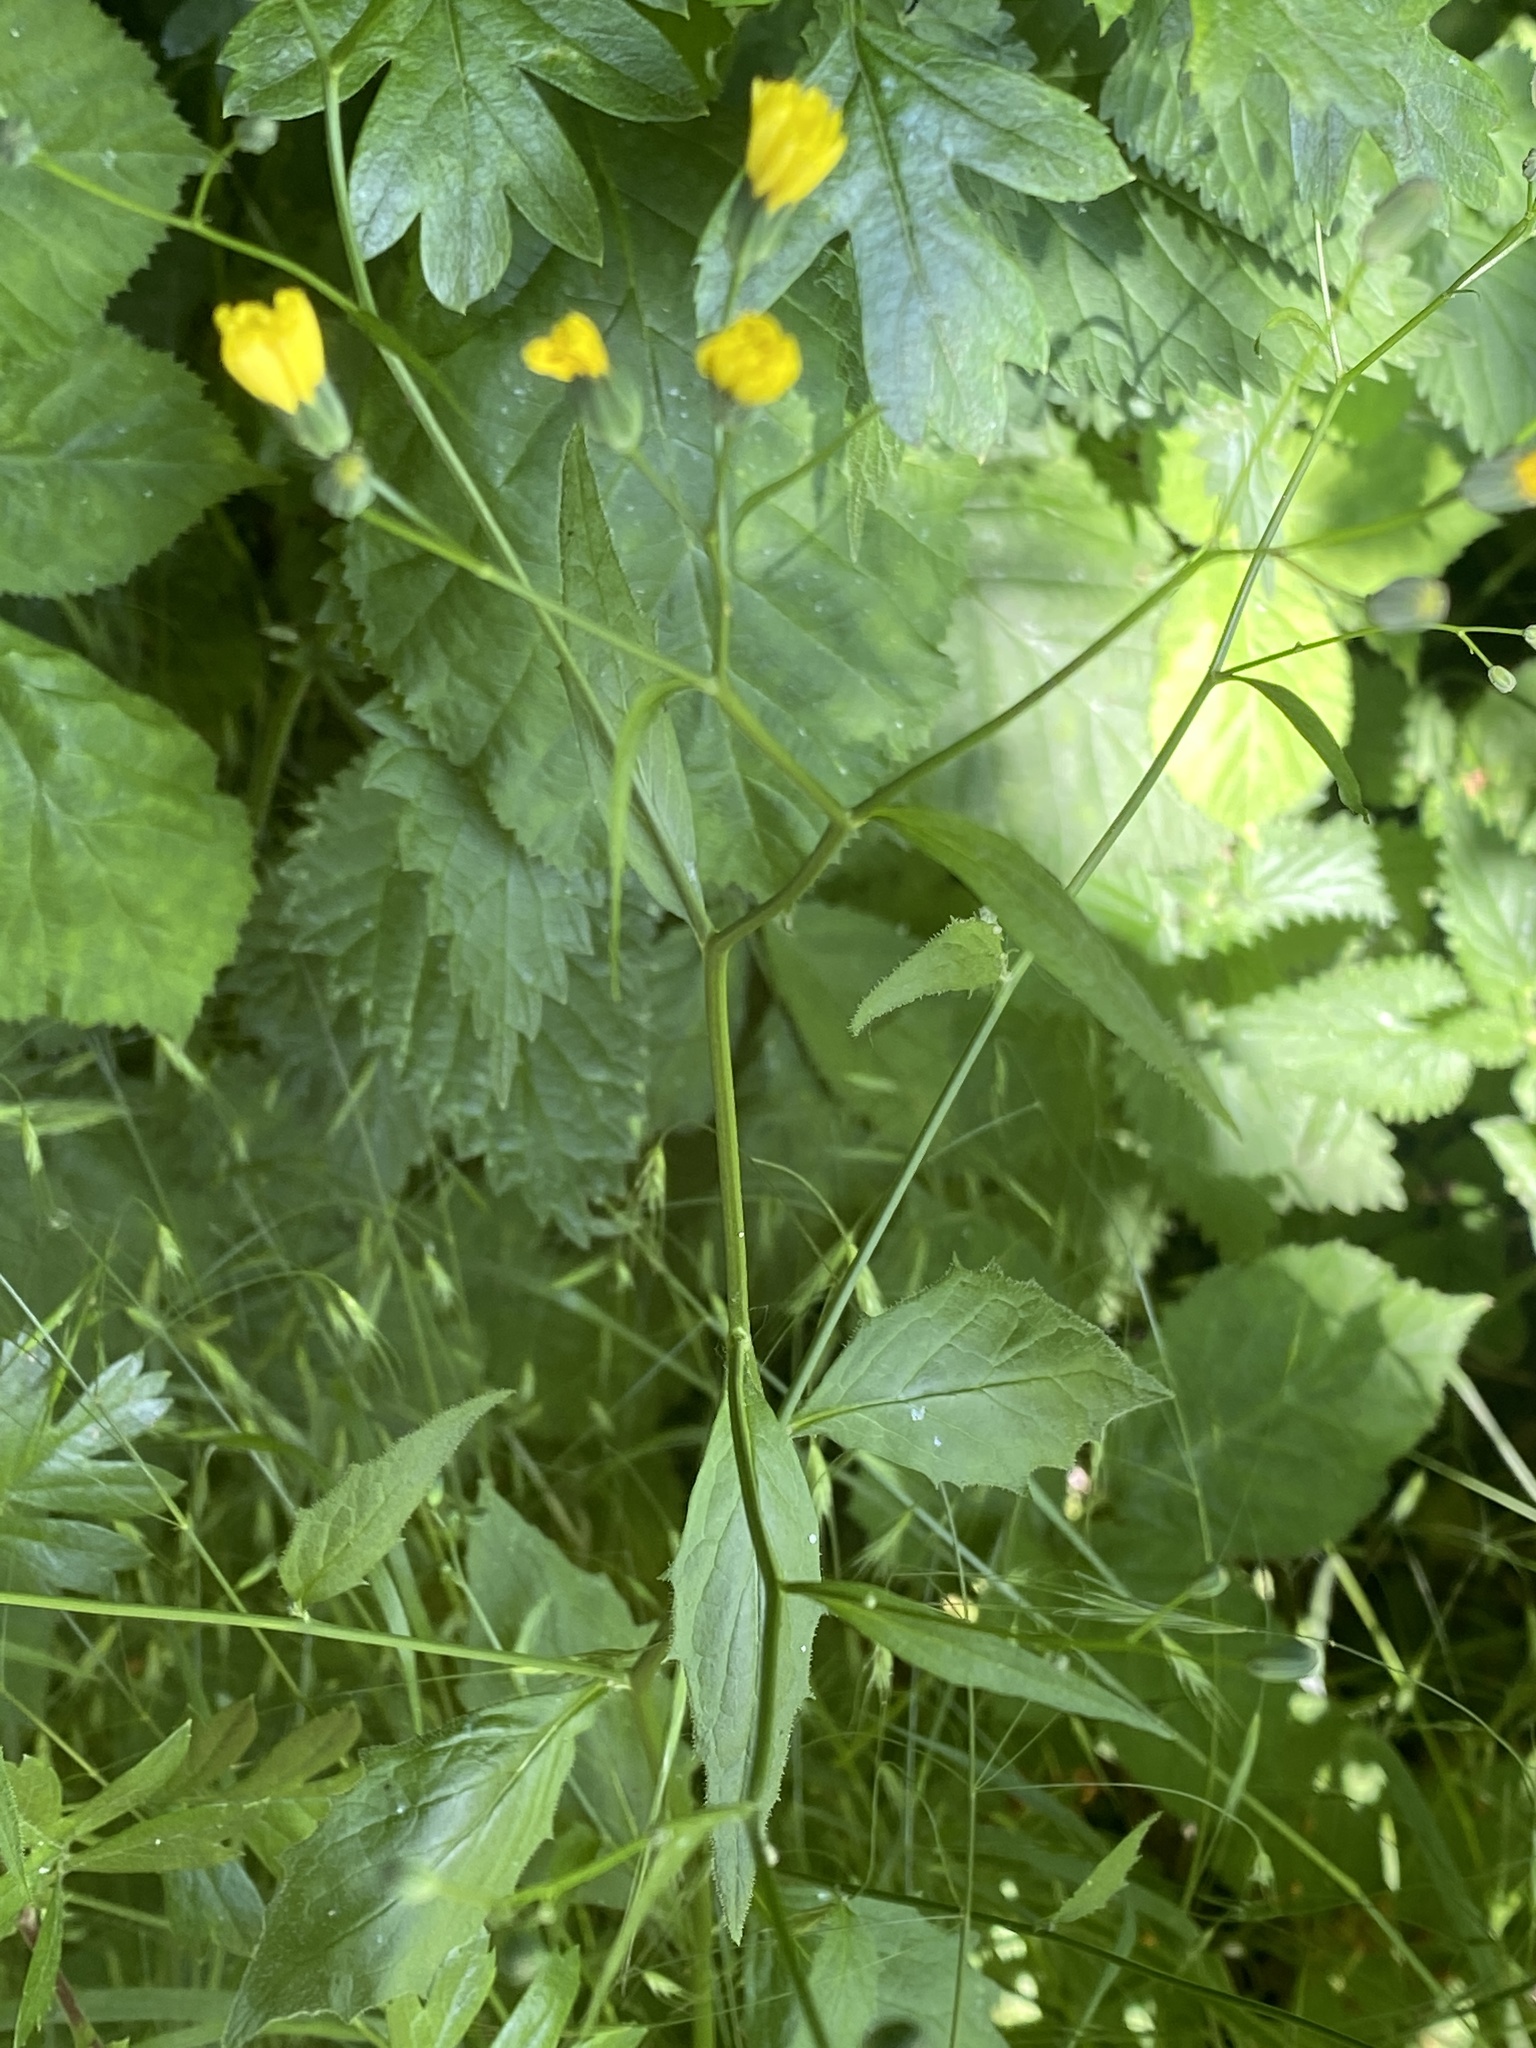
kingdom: Plantae
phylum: Tracheophyta
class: Magnoliopsida
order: Asterales
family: Asteraceae
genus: Lapsana
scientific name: Lapsana communis
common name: Nipplewort
